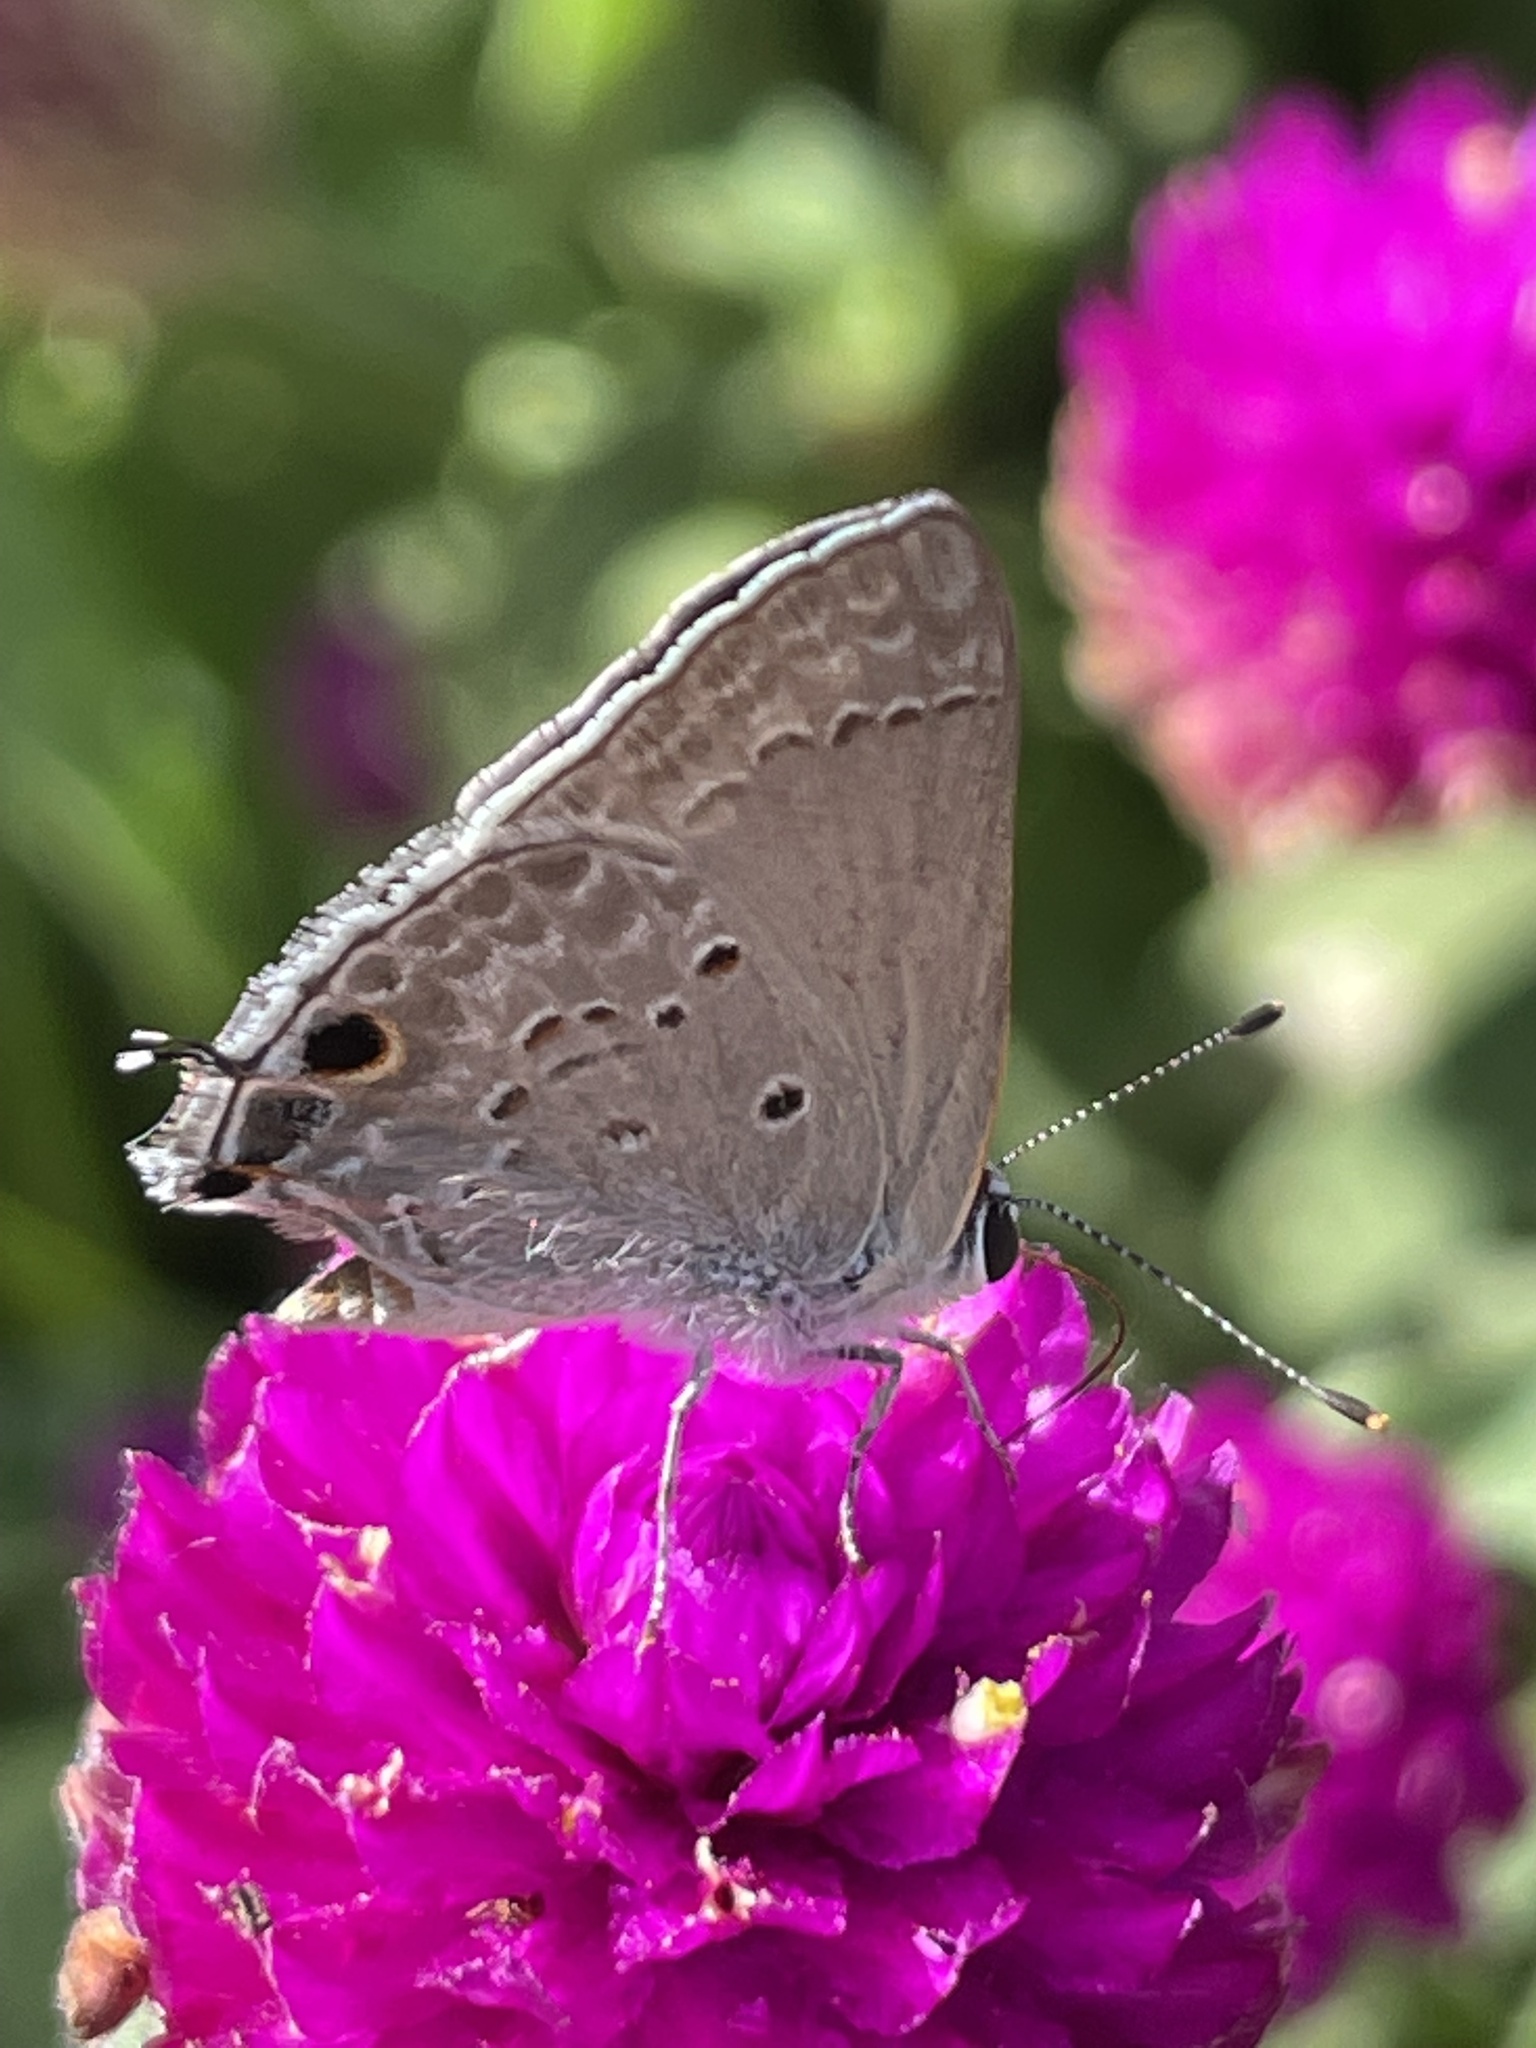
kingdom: Animalia
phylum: Arthropoda
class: Insecta
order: Lepidoptera
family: Lycaenidae
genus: Callicista
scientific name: Callicista columella
